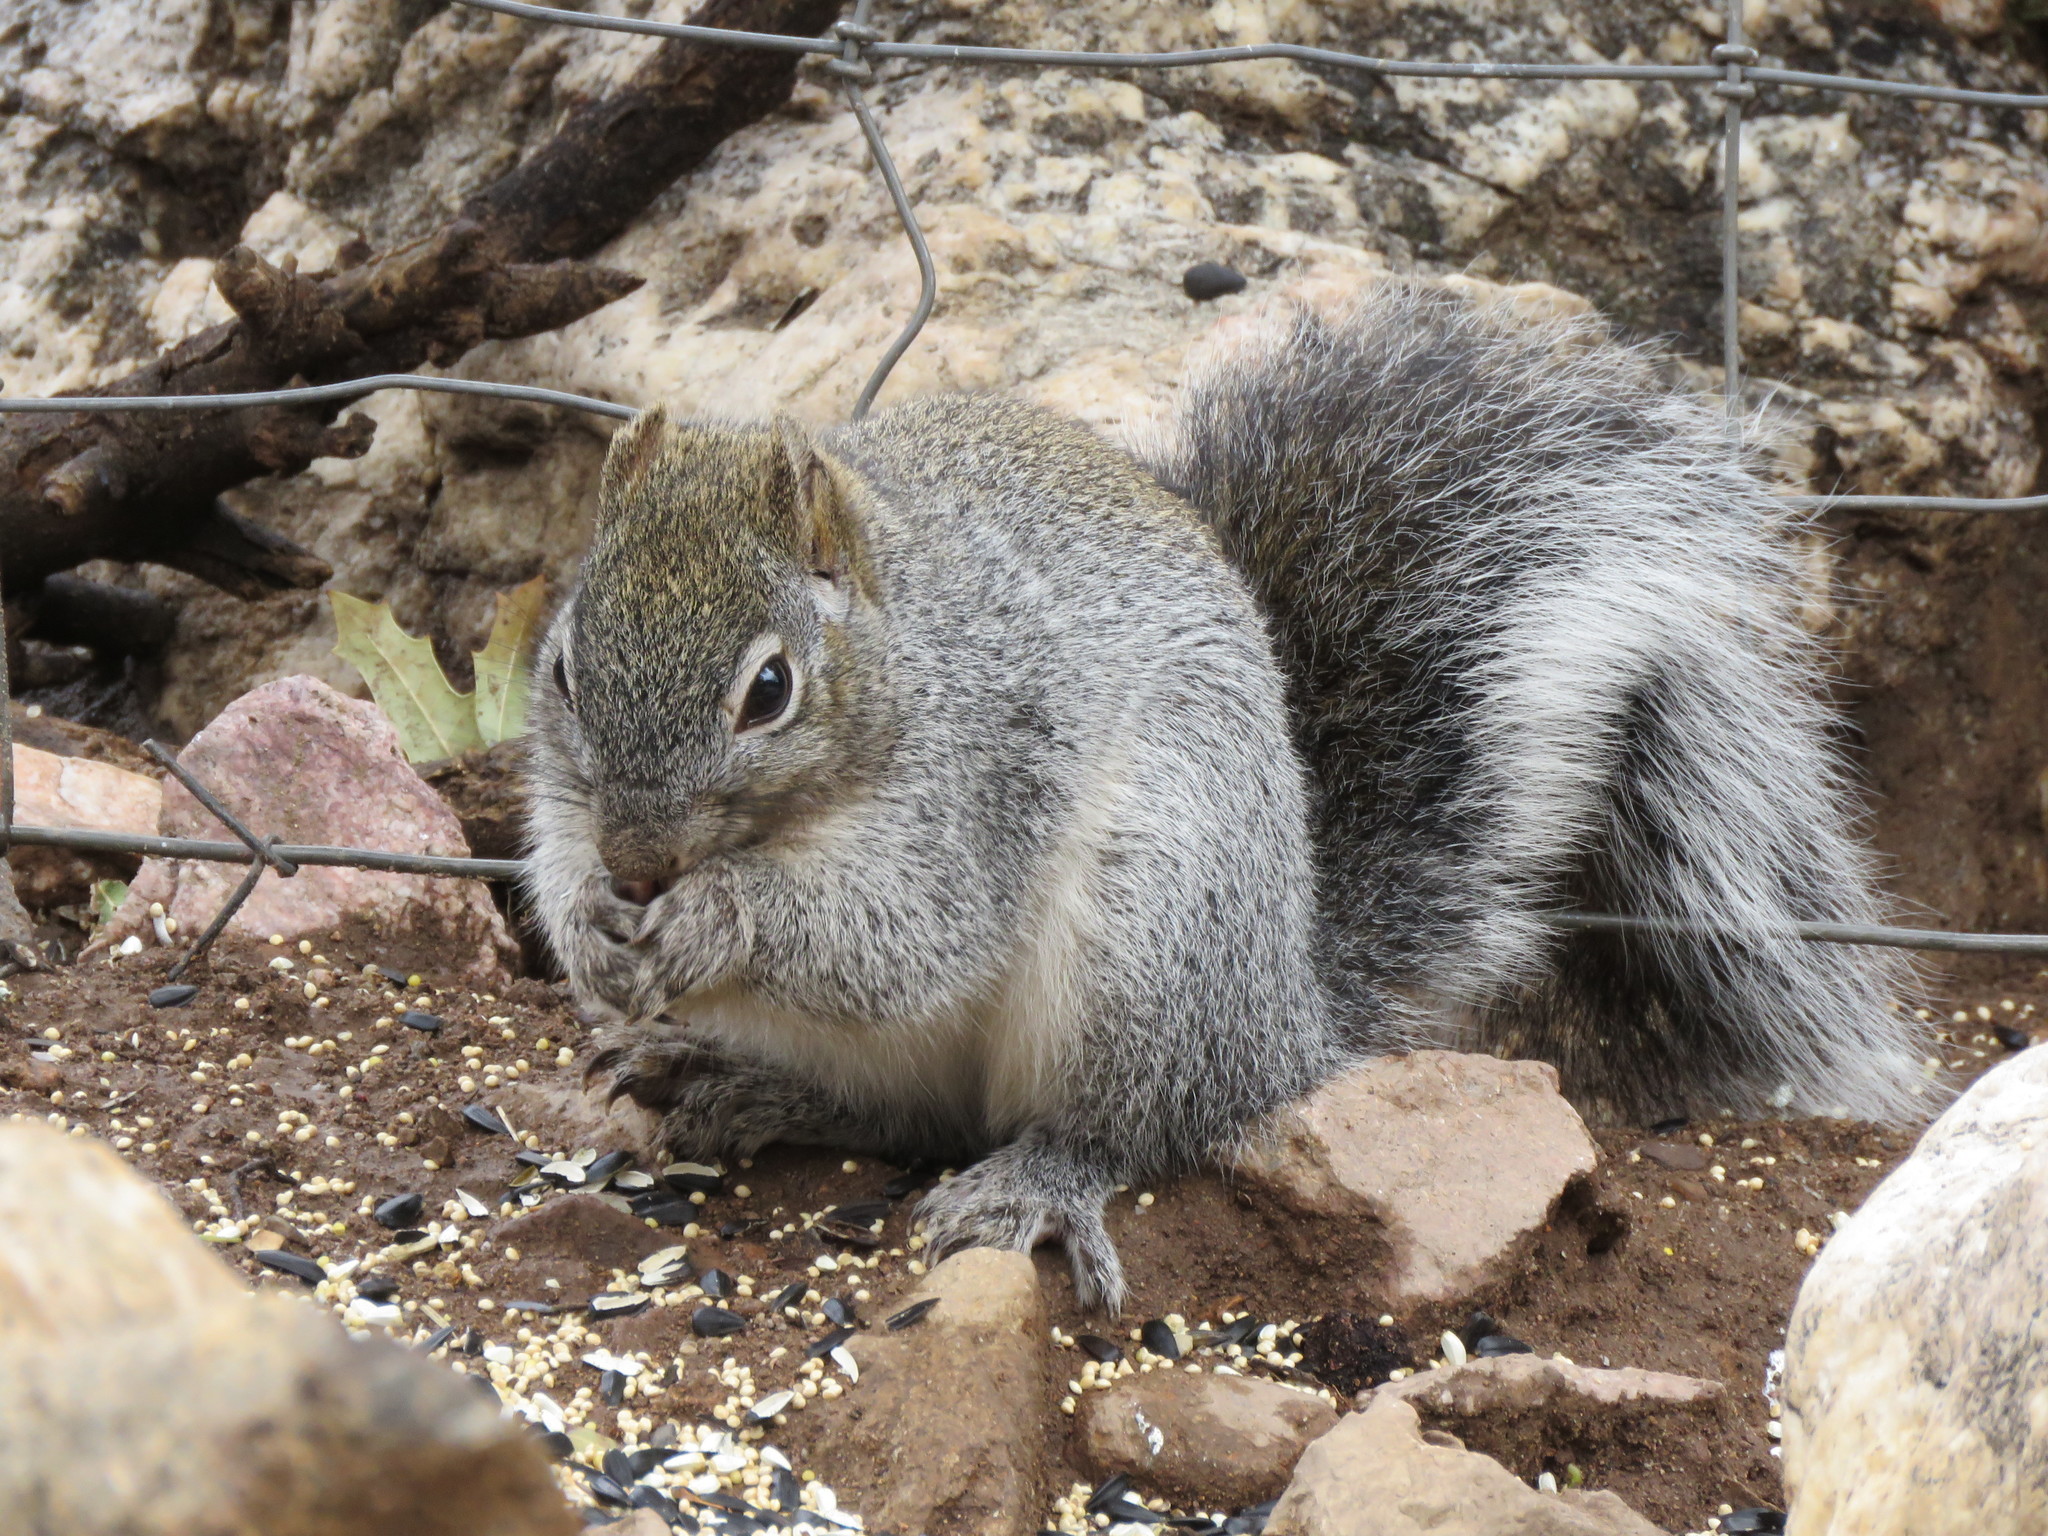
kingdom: Animalia
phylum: Chordata
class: Mammalia
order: Rodentia
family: Sciuridae
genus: Sciurus
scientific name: Sciurus arizonensis
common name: Arizona gray squirrel
